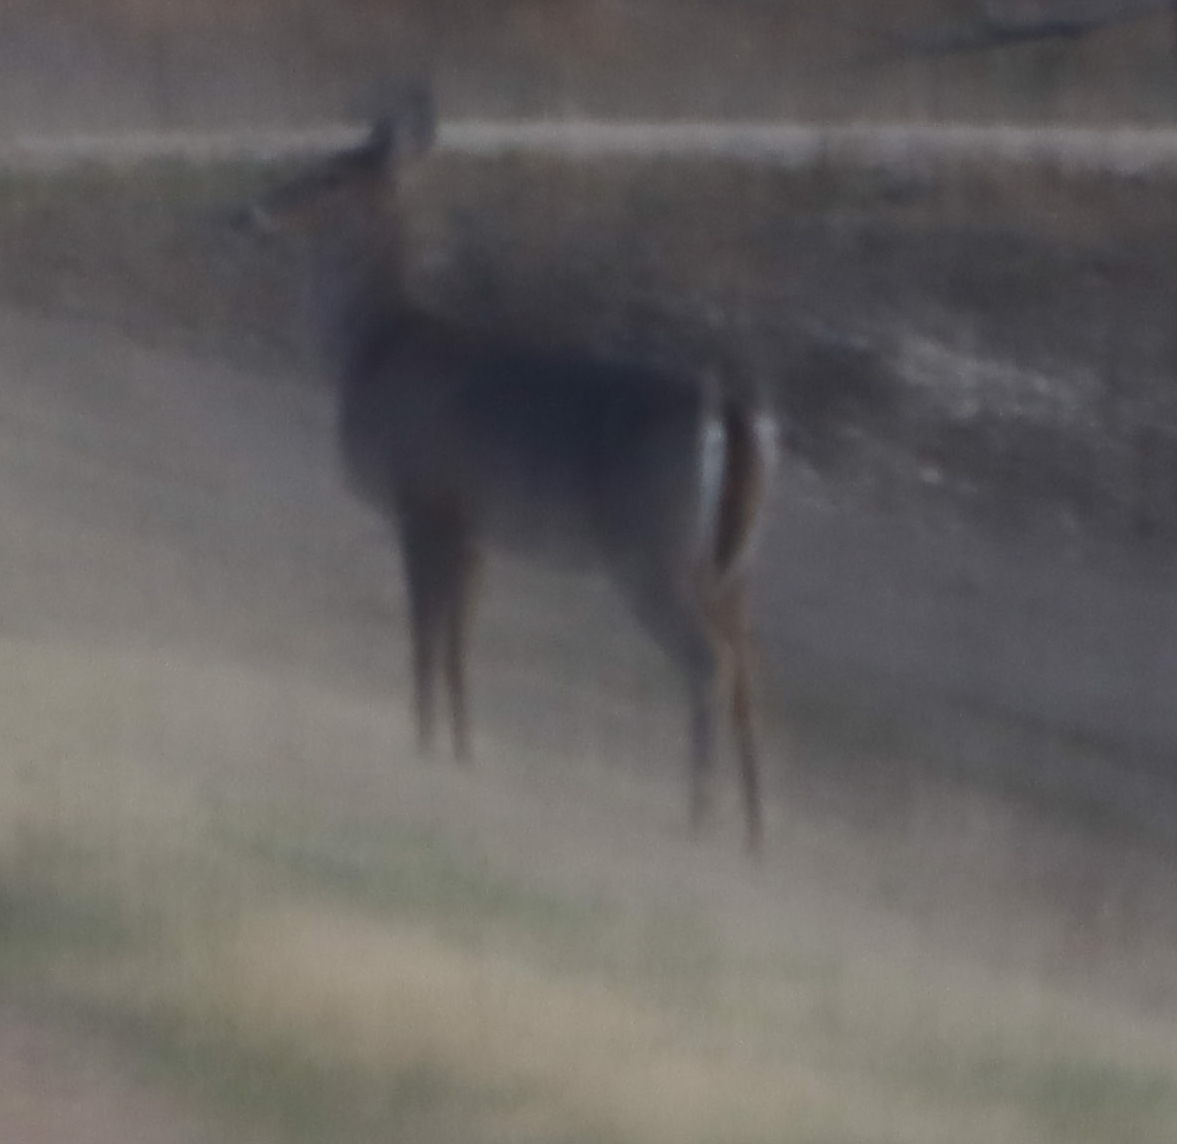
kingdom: Animalia
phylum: Chordata
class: Mammalia
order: Artiodactyla
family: Cervidae
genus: Odocoileus
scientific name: Odocoileus virginianus
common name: White-tailed deer
